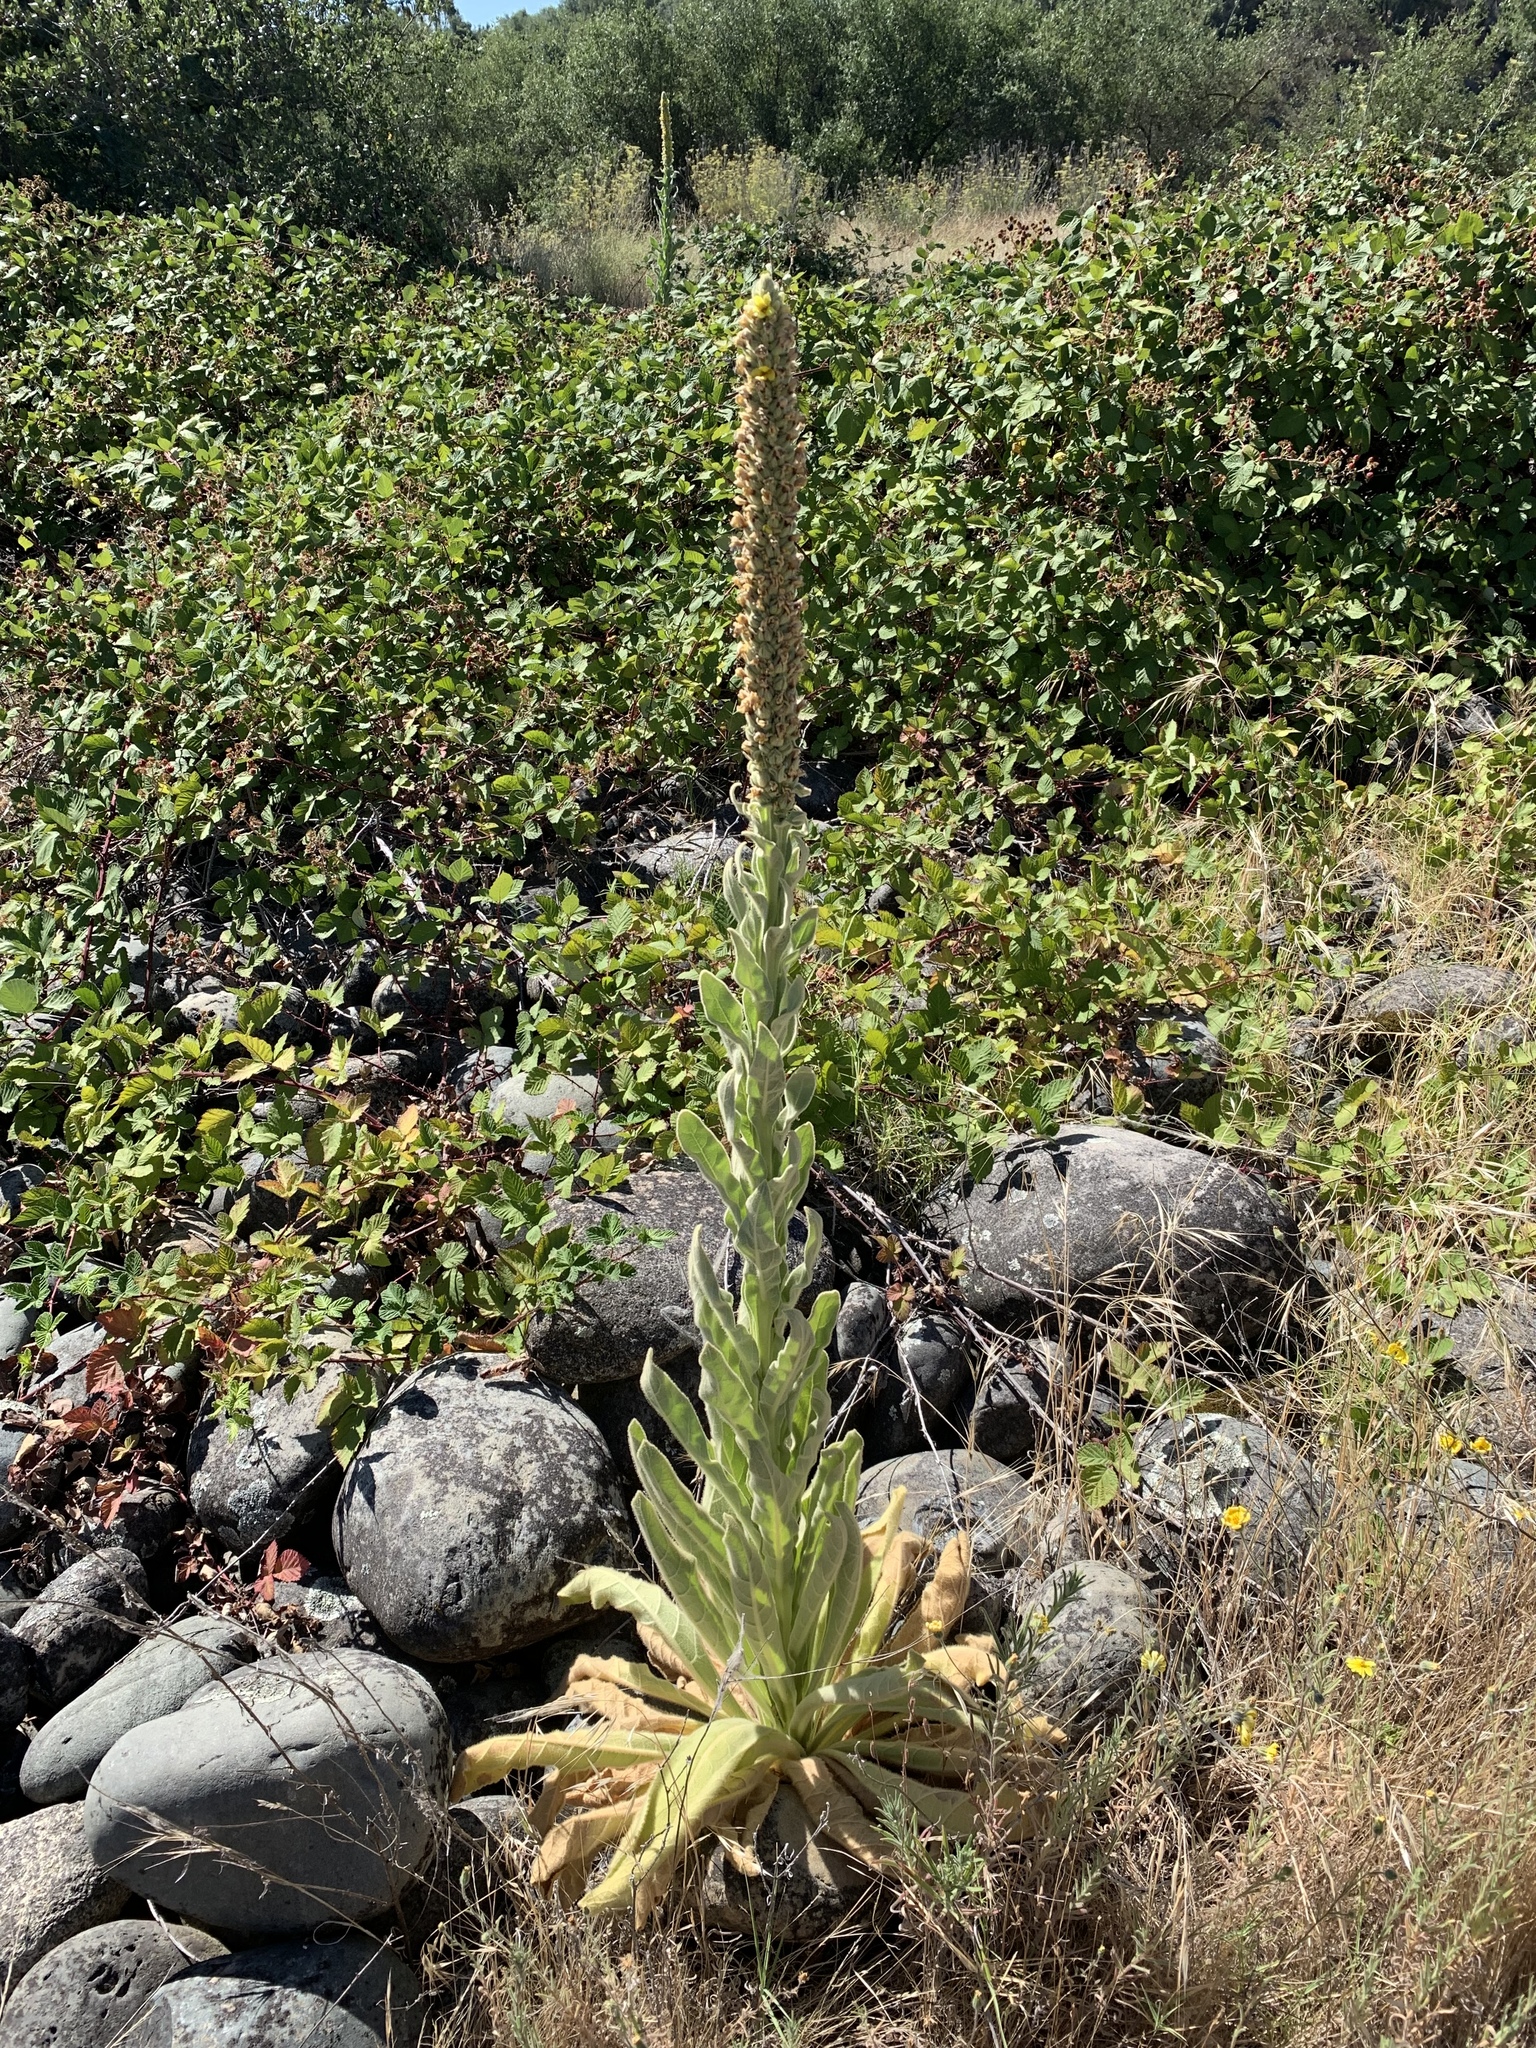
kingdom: Plantae
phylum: Tracheophyta
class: Magnoliopsida
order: Lamiales
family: Scrophulariaceae
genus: Verbascum
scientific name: Verbascum thapsus
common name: Common mullein
